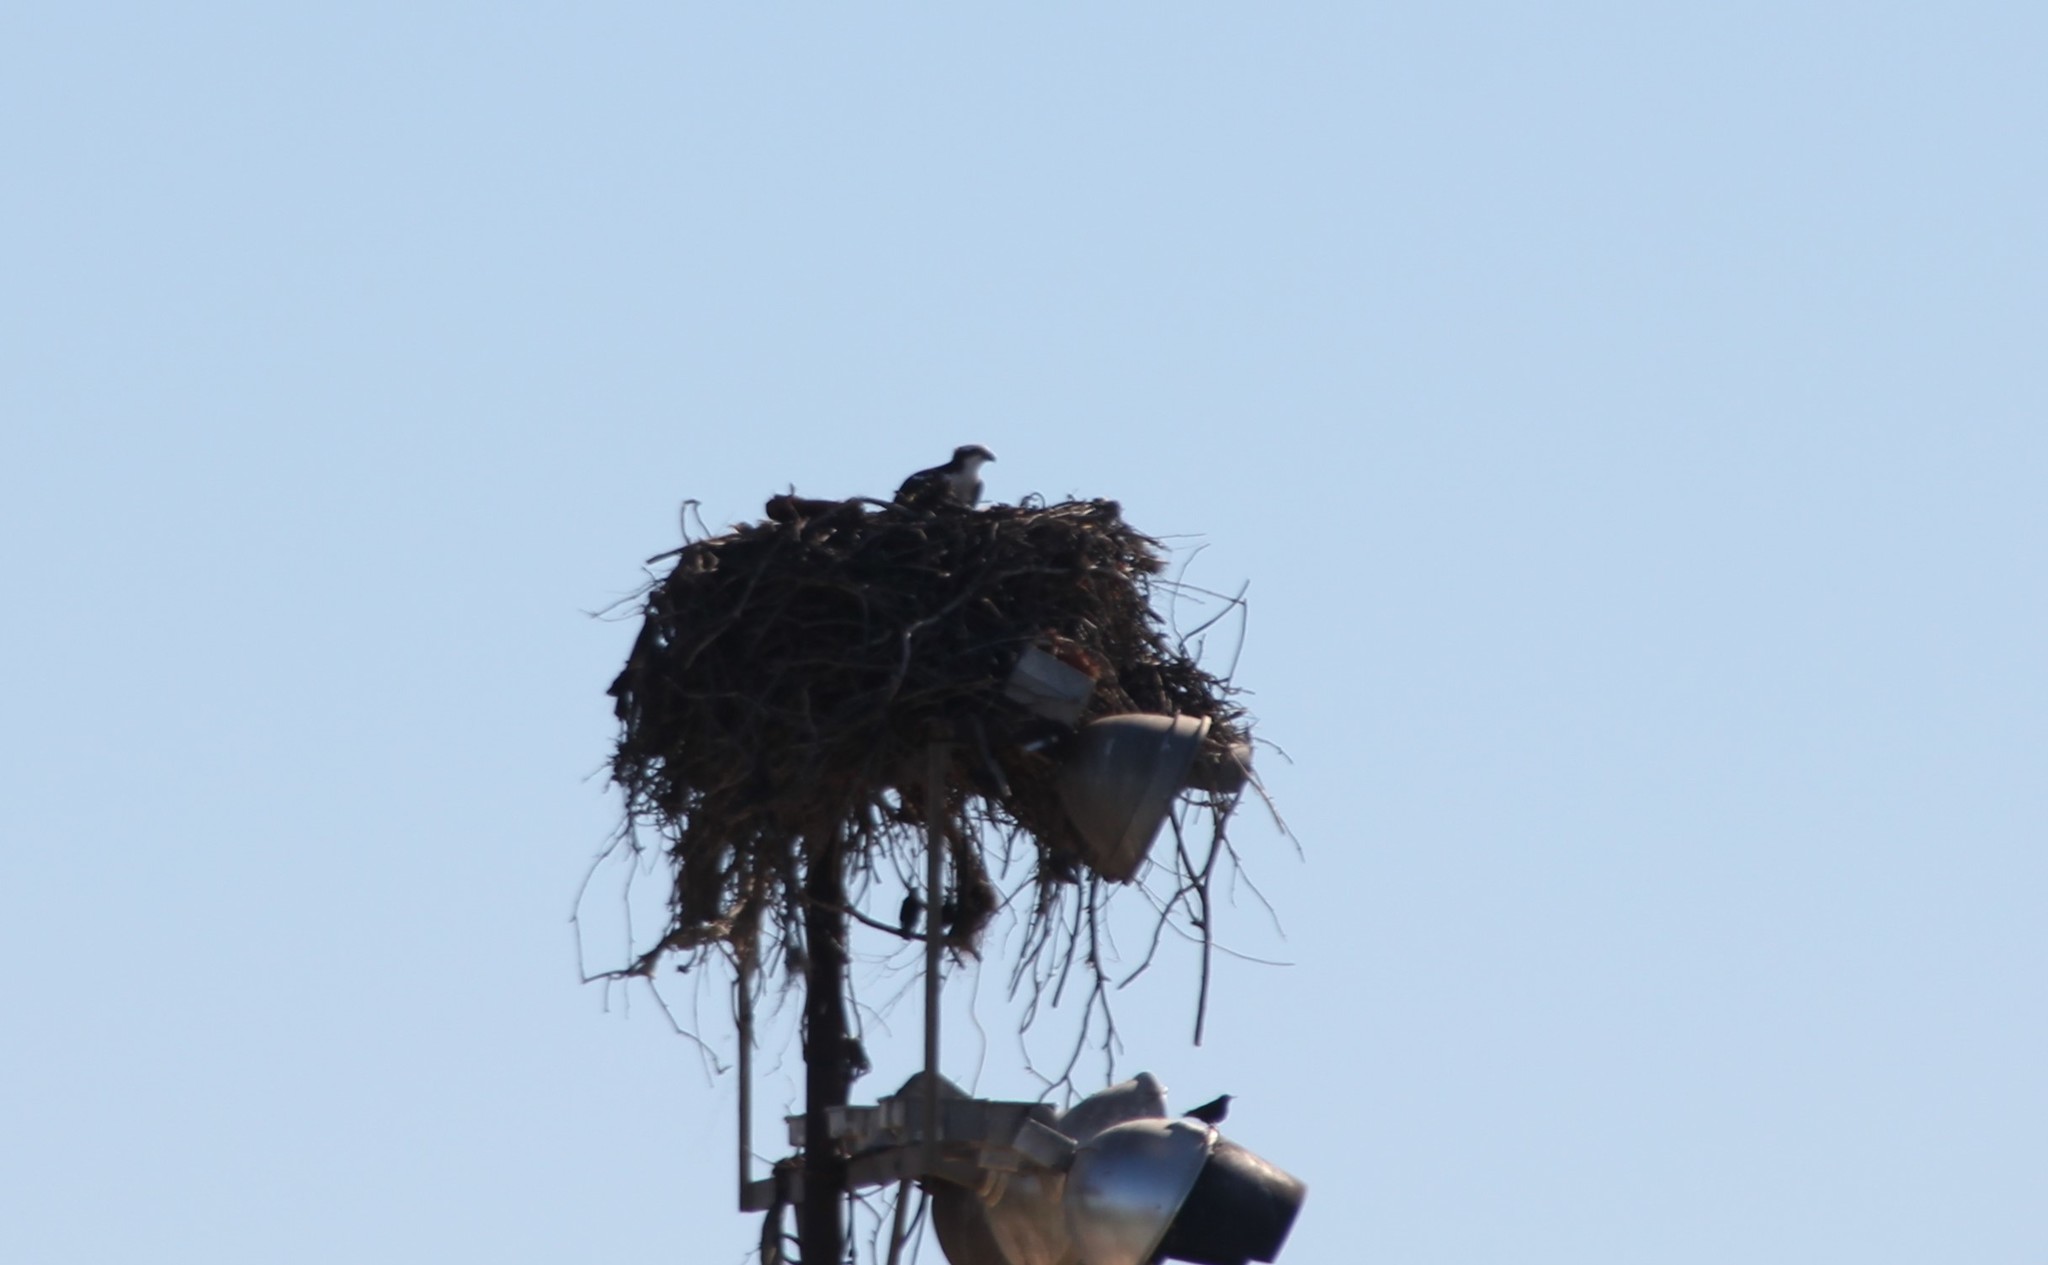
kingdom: Animalia
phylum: Chordata
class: Aves
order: Accipitriformes
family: Pandionidae
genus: Pandion
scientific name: Pandion haliaetus
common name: Osprey
